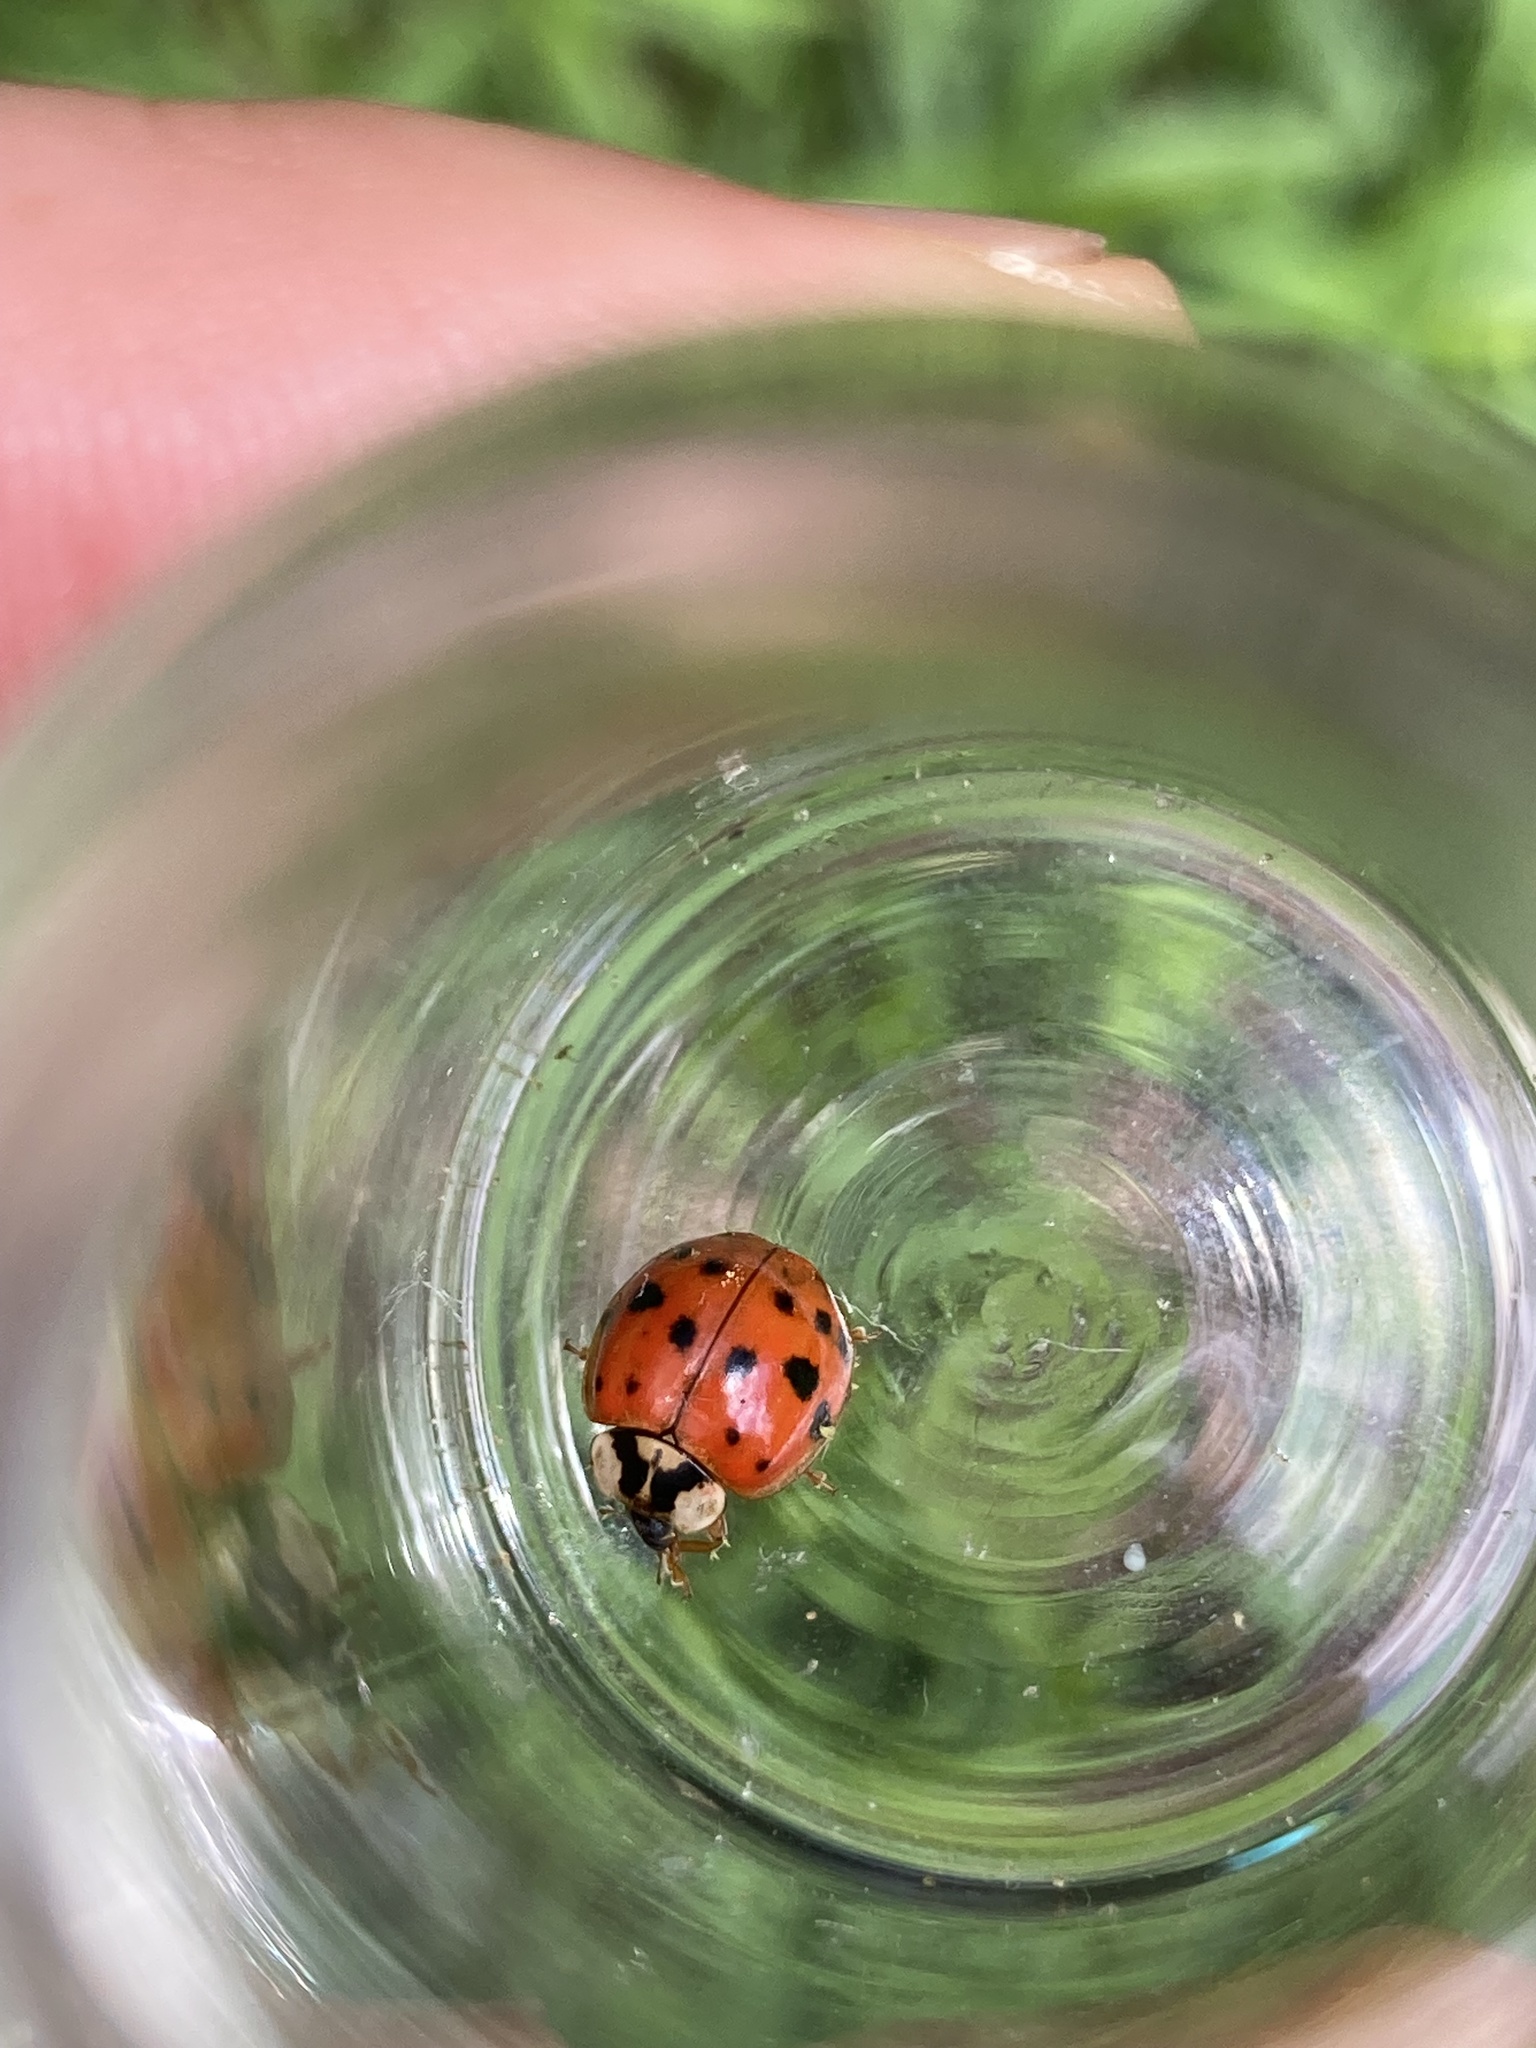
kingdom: Animalia
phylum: Arthropoda
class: Insecta
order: Coleoptera
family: Coccinellidae
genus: Harmonia
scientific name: Harmonia axyridis
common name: Harlequin ladybird
